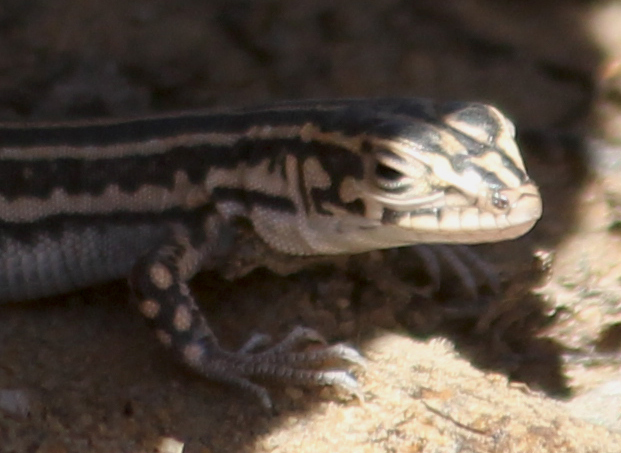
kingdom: Animalia
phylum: Chordata
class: Squamata
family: Lacertidae
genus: Pedioplanis
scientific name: Pedioplanis burchelli
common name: Burchell's sand lizard
